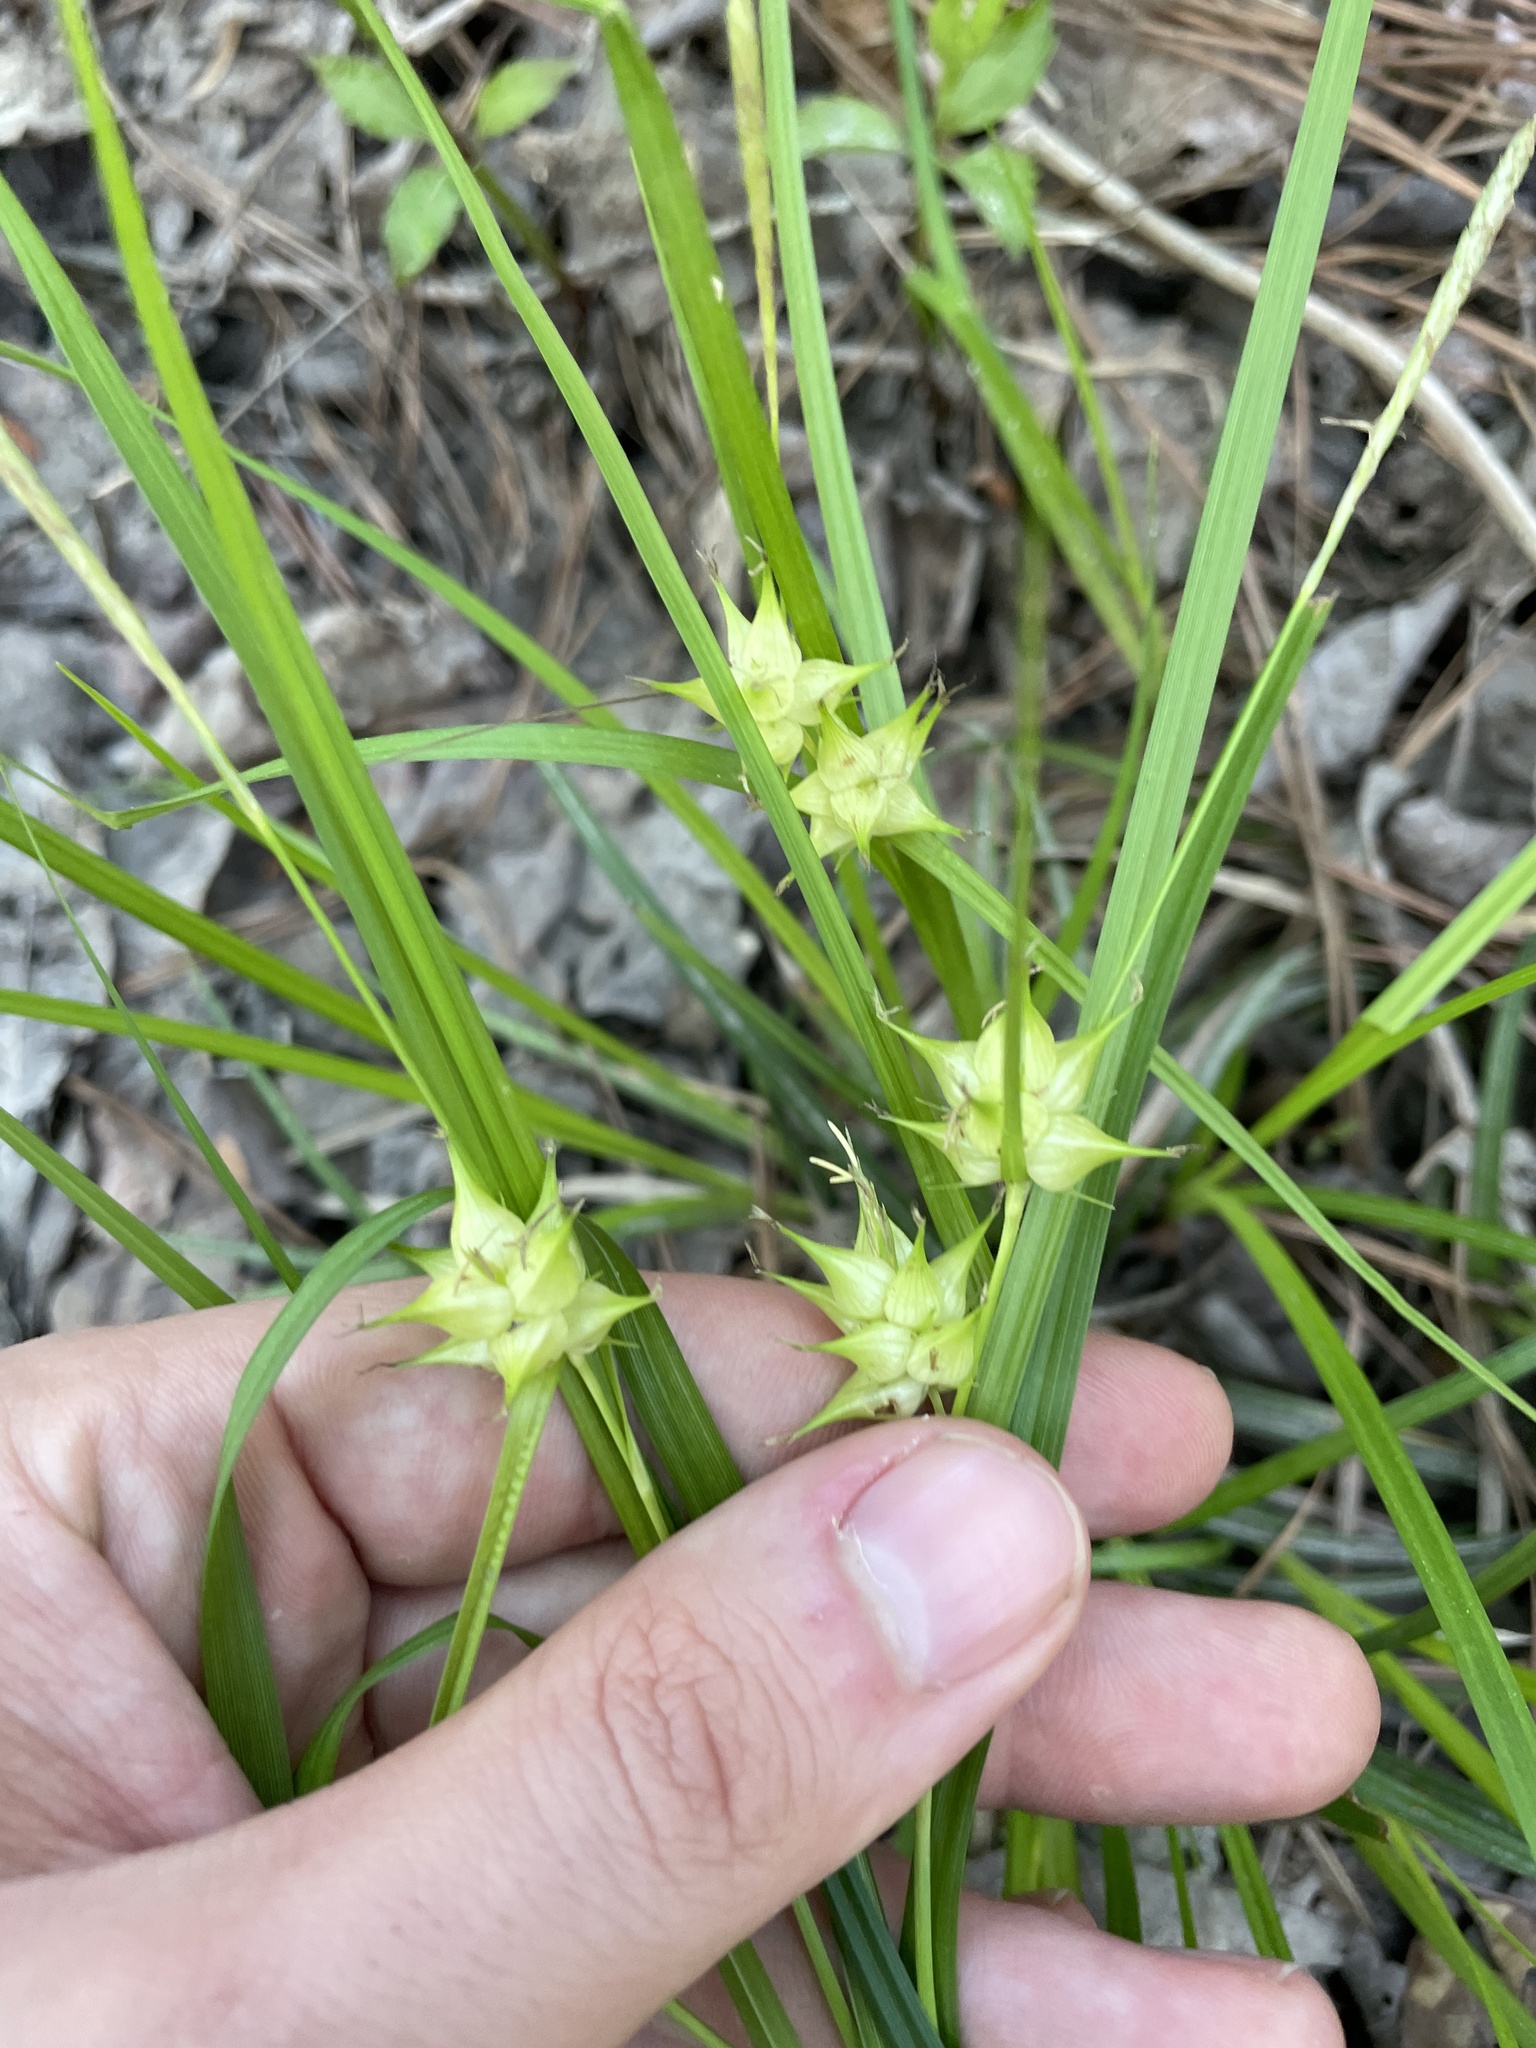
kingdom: Plantae
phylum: Tracheophyta
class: Liliopsida
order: Poales
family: Cyperaceae
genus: Carex
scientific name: Carex intumescens
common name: Greater bladder sedge
